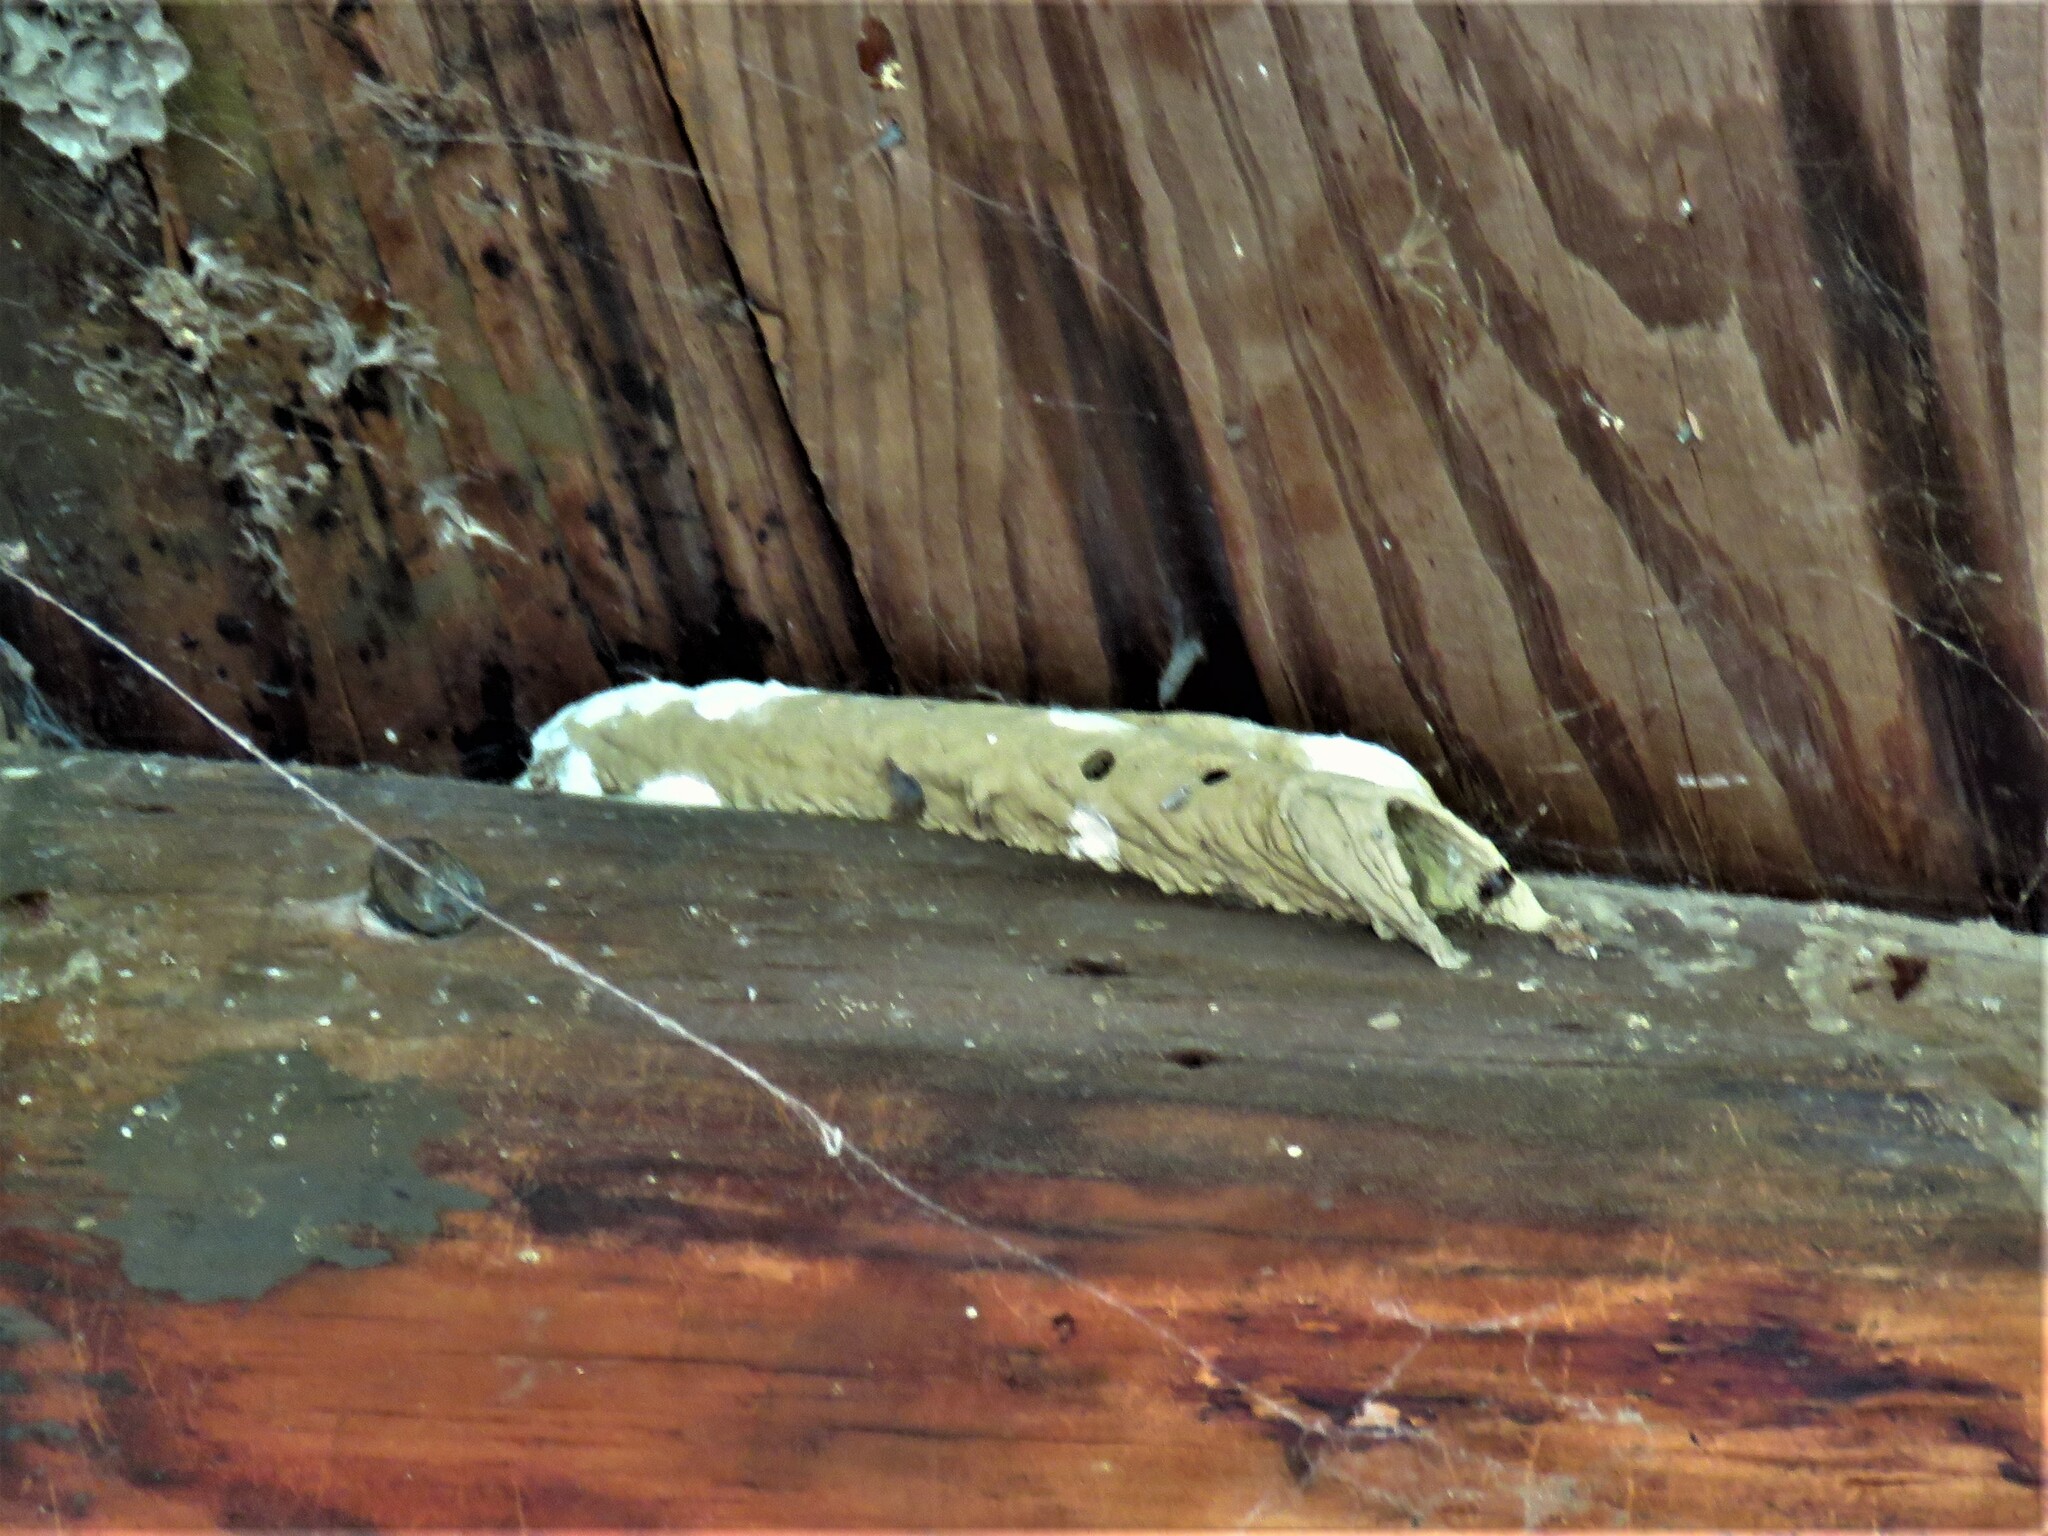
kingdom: Animalia
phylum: Arthropoda
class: Insecta
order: Hymenoptera
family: Crabronidae
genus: Trypoxylon
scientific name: Trypoxylon politum
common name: Organ-pipe mud-dauber wasp
